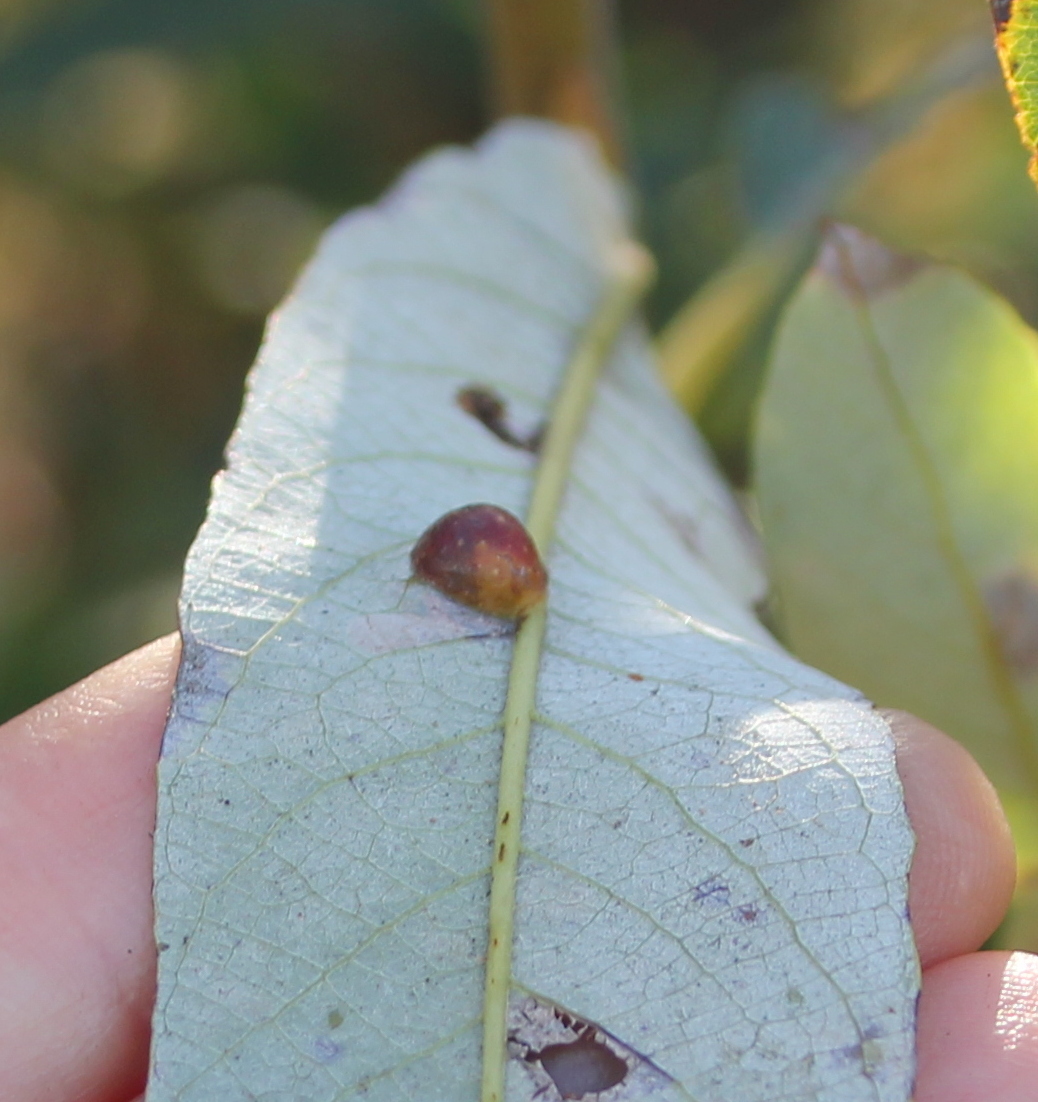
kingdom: Animalia
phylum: Arthropoda
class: Insecta
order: Hymenoptera
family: Tenthredinidae
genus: Euura
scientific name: Euura
